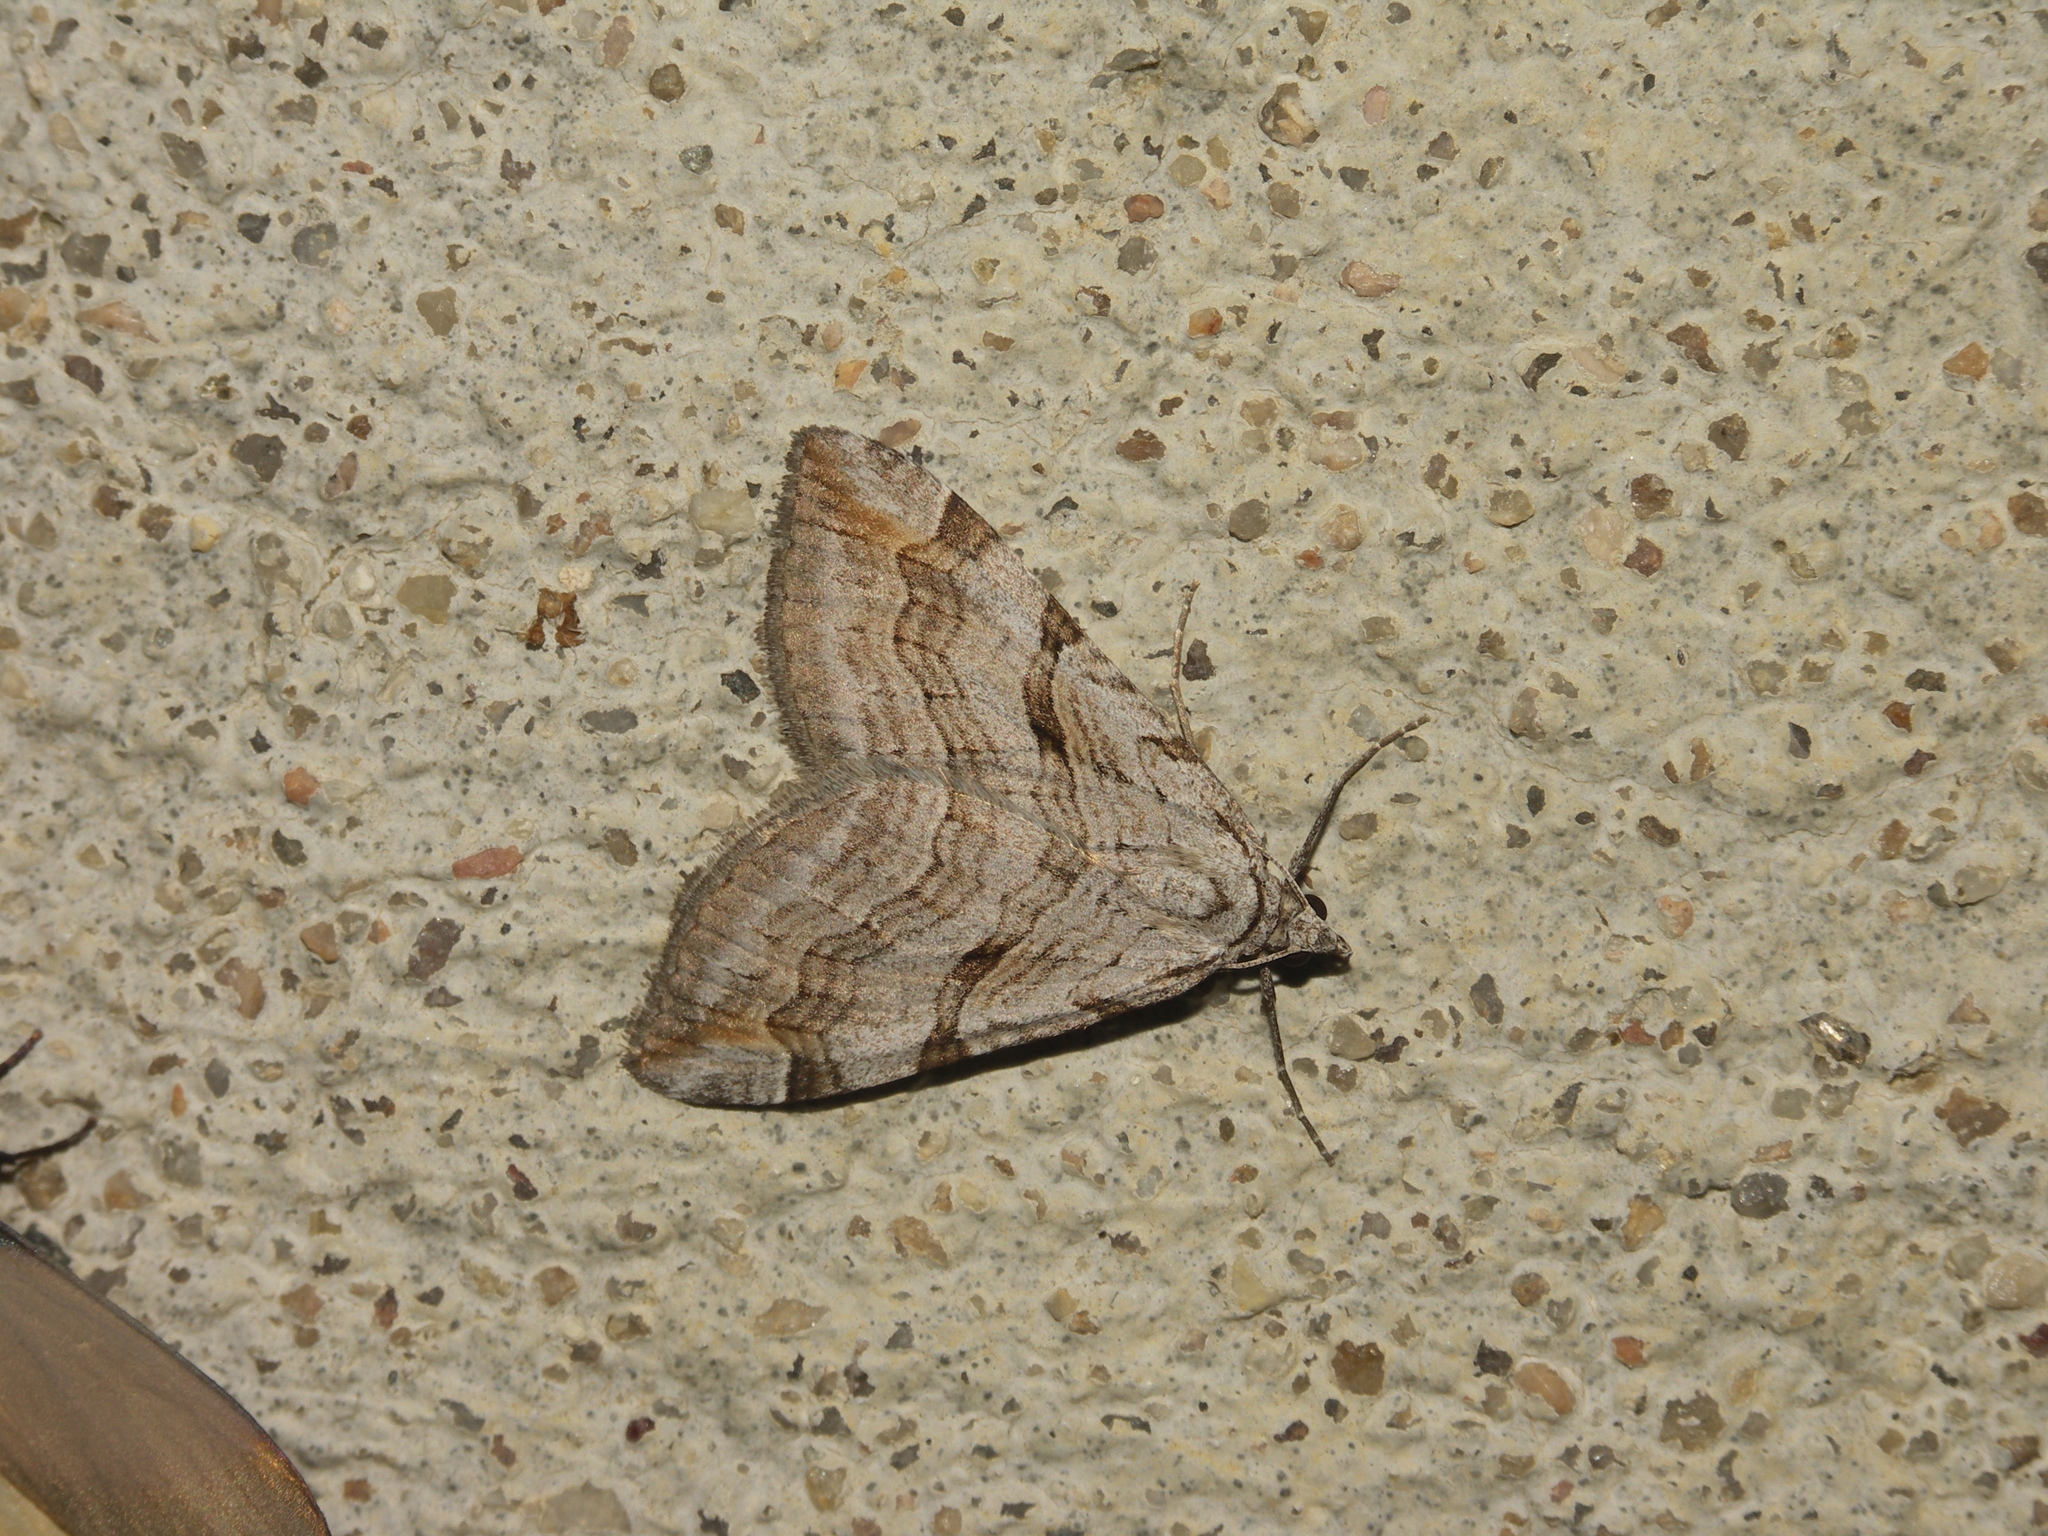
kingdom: Animalia
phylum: Arthropoda
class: Insecta
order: Lepidoptera
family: Geometridae
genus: Aplocera
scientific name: Aplocera plagiata
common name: Treble-bar
